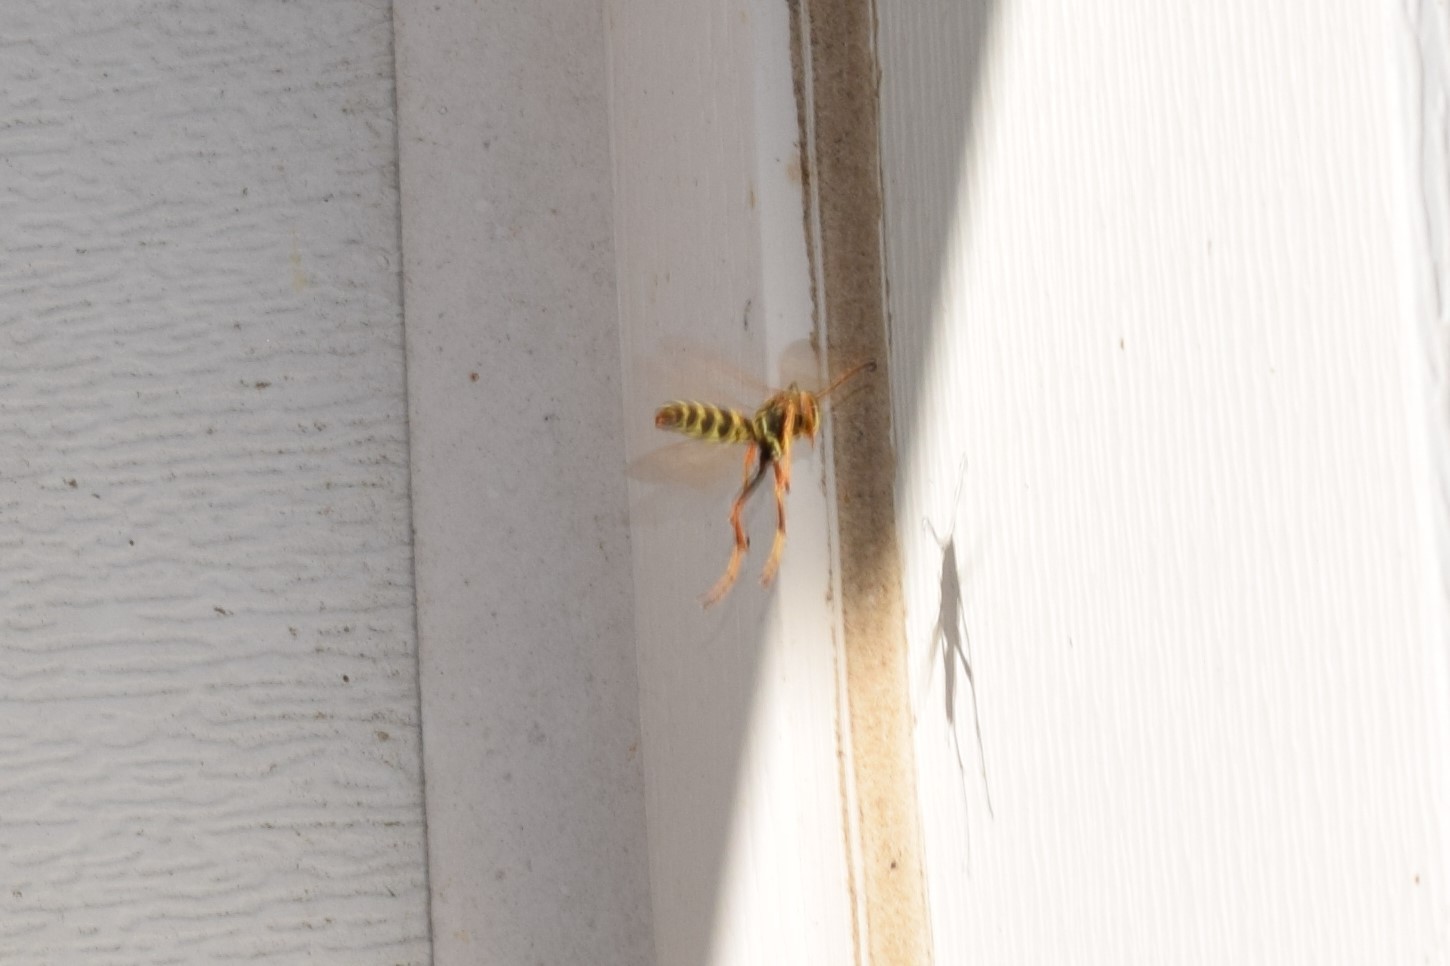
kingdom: Animalia
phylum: Arthropoda
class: Insecta
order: Hymenoptera
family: Eumenidae
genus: Polistes
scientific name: Polistes fuscatus
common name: Dark paper wasp
